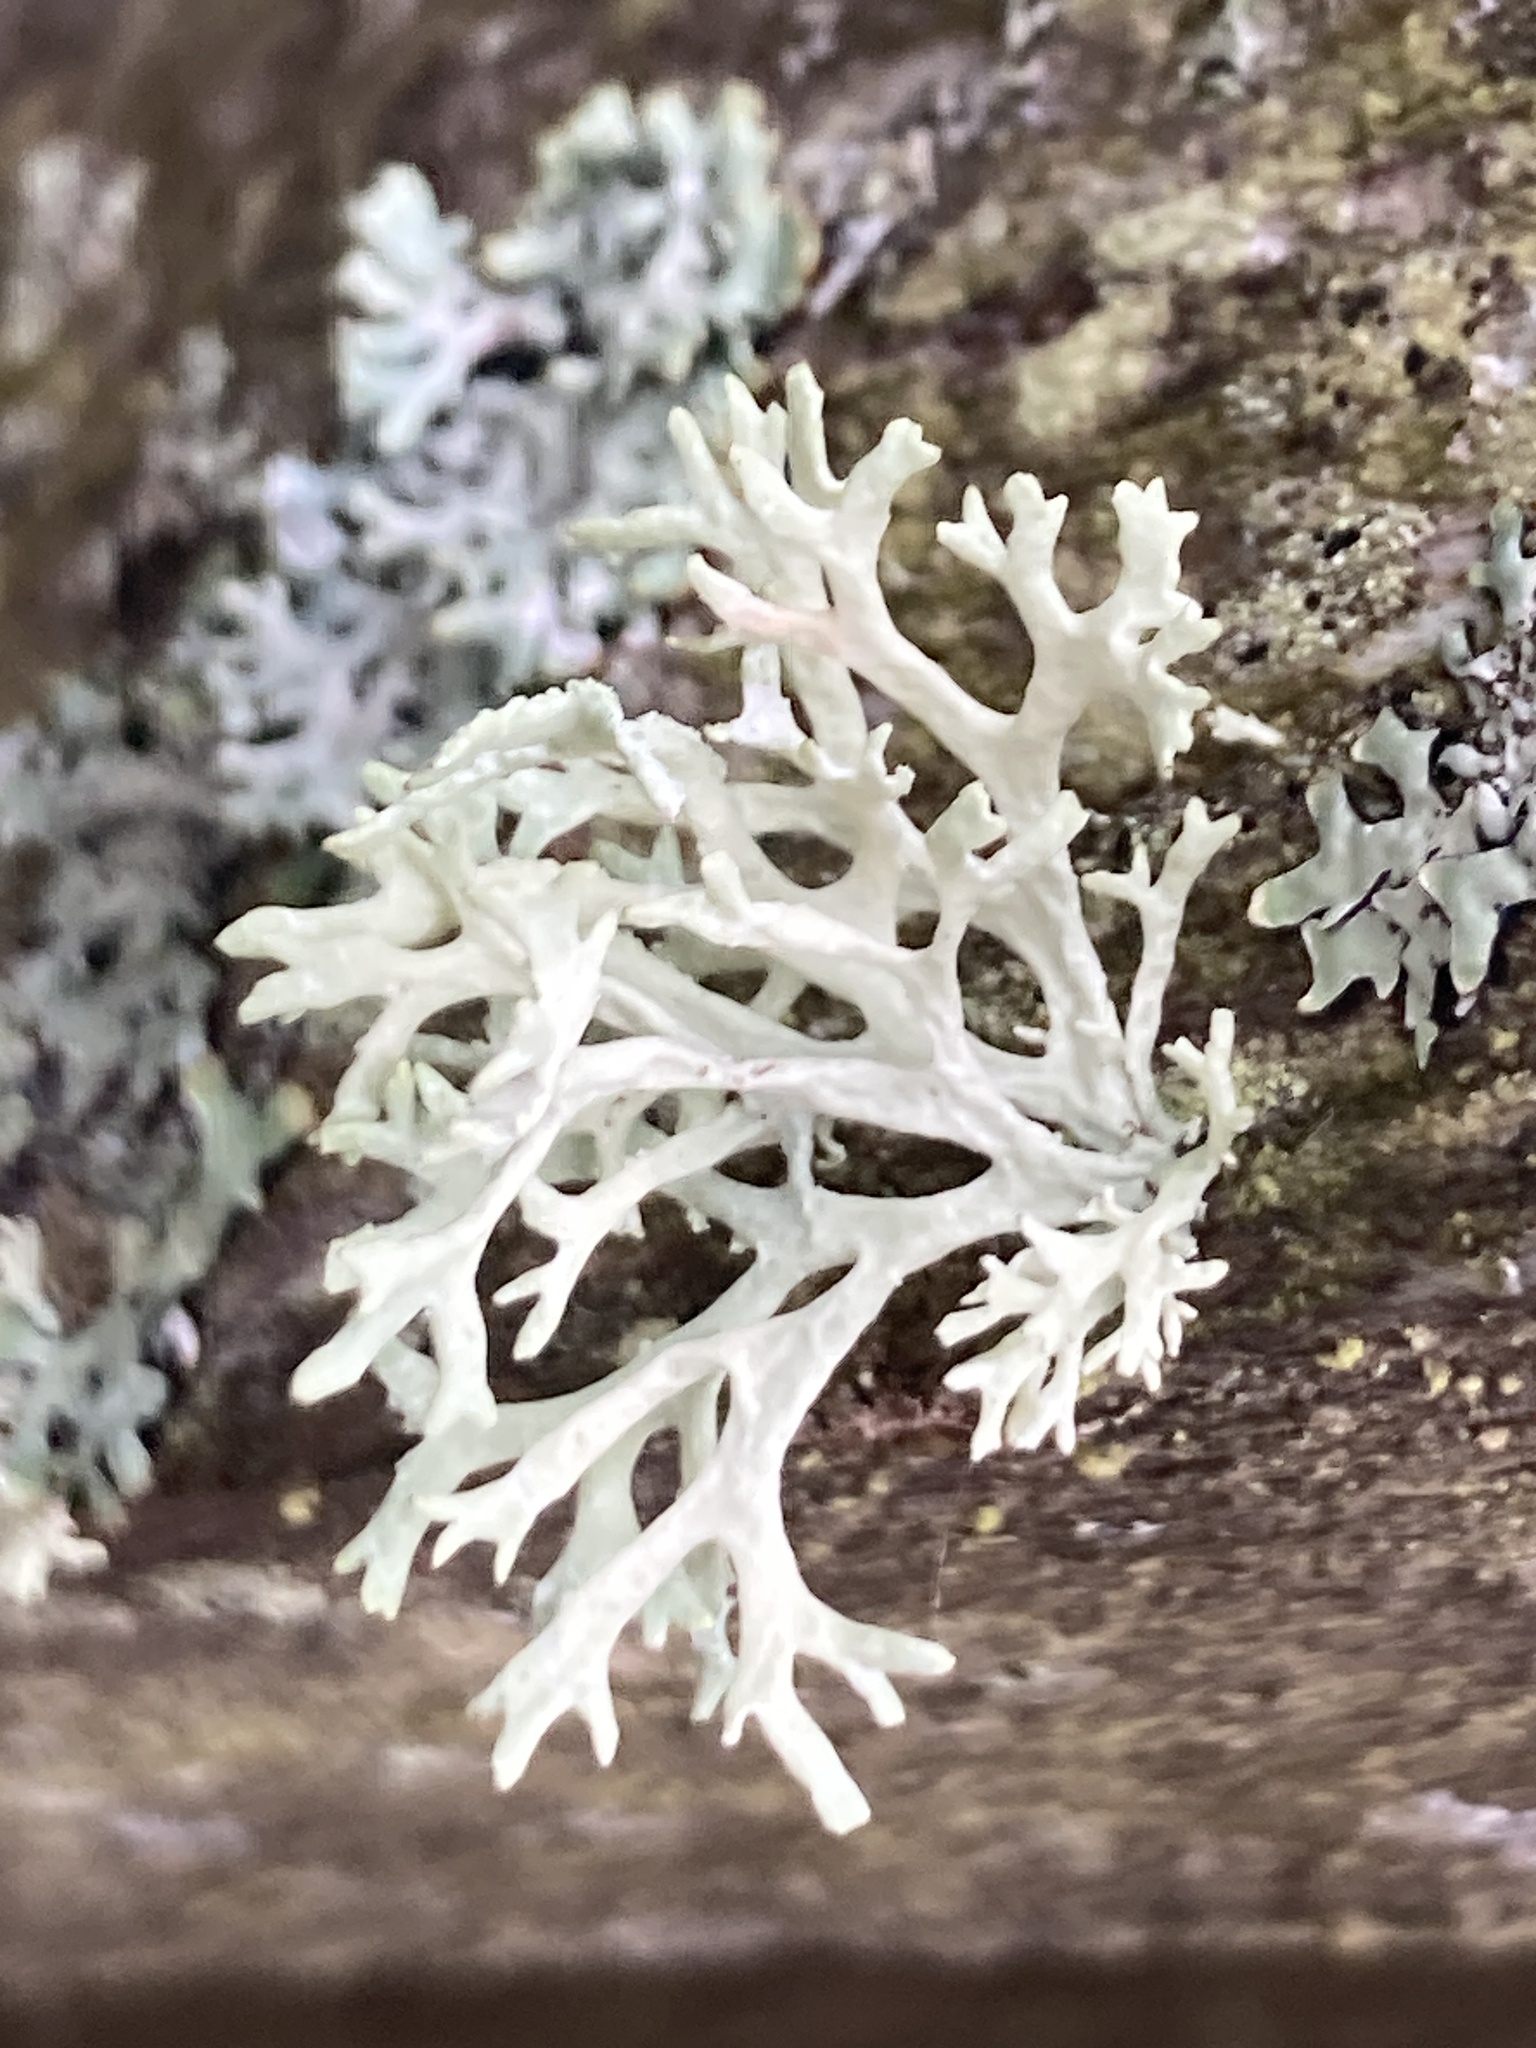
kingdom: Fungi
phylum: Ascomycota
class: Lecanoromycetes
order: Lecanorales
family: Parmeliaceae
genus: Evernia
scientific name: Evernia prunastri
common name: Oak moss
